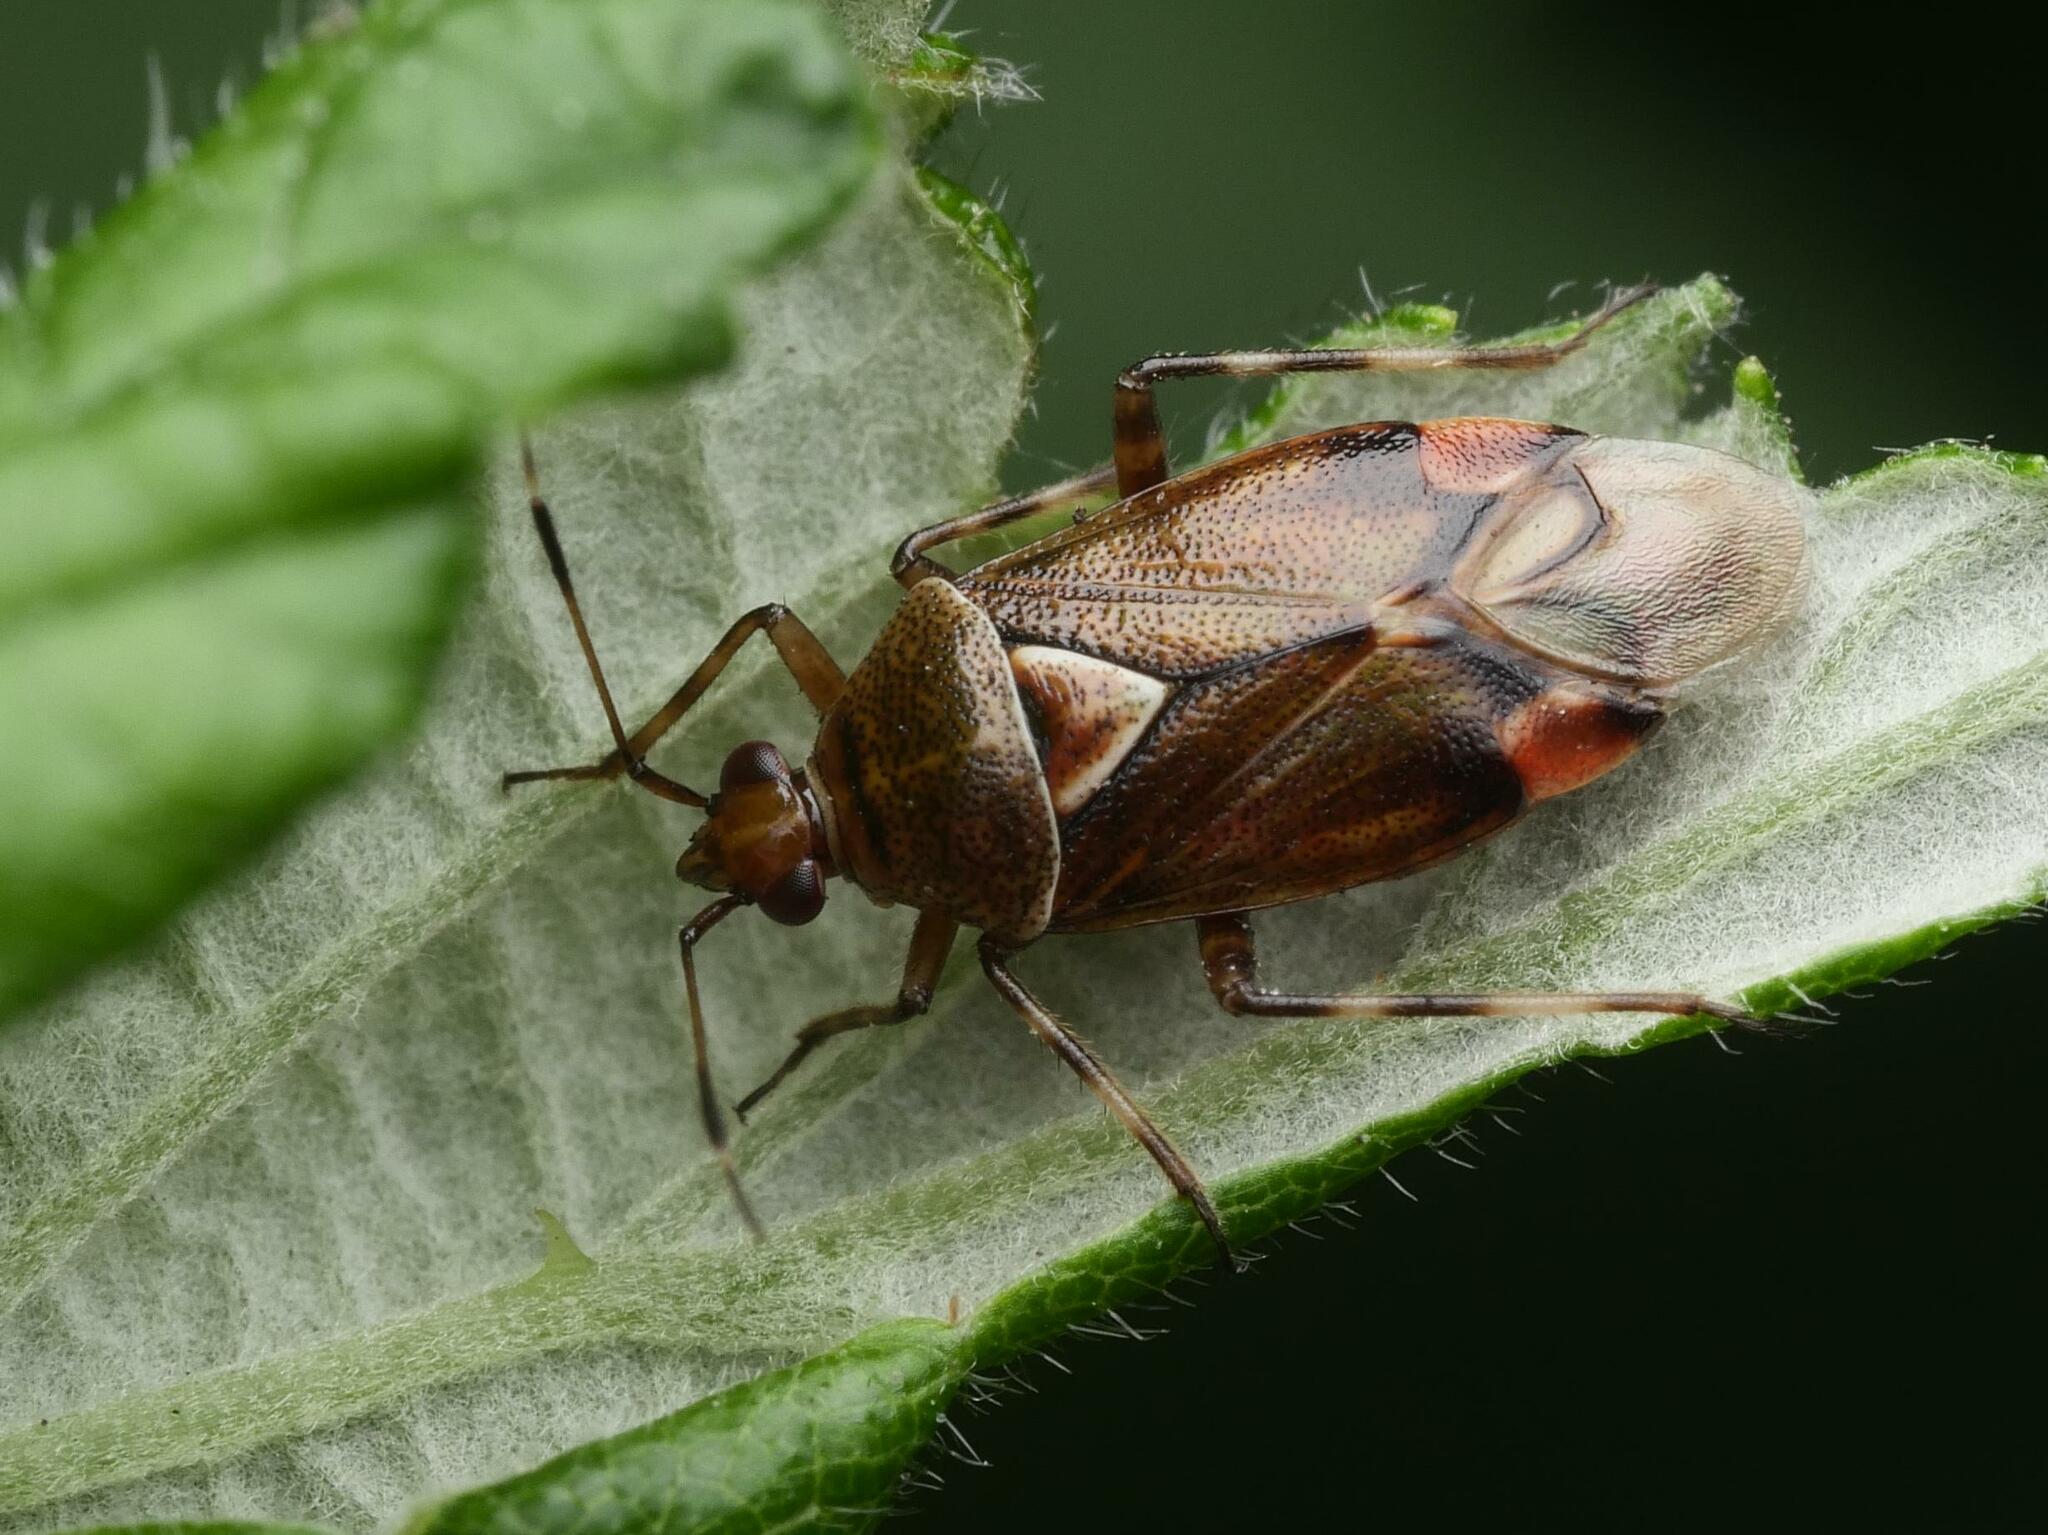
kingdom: Animalia
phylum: Arthropoda
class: Insecta
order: Hemiptera
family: Miridae
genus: Deraeocoris
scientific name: Deraeocoris flavilinea
